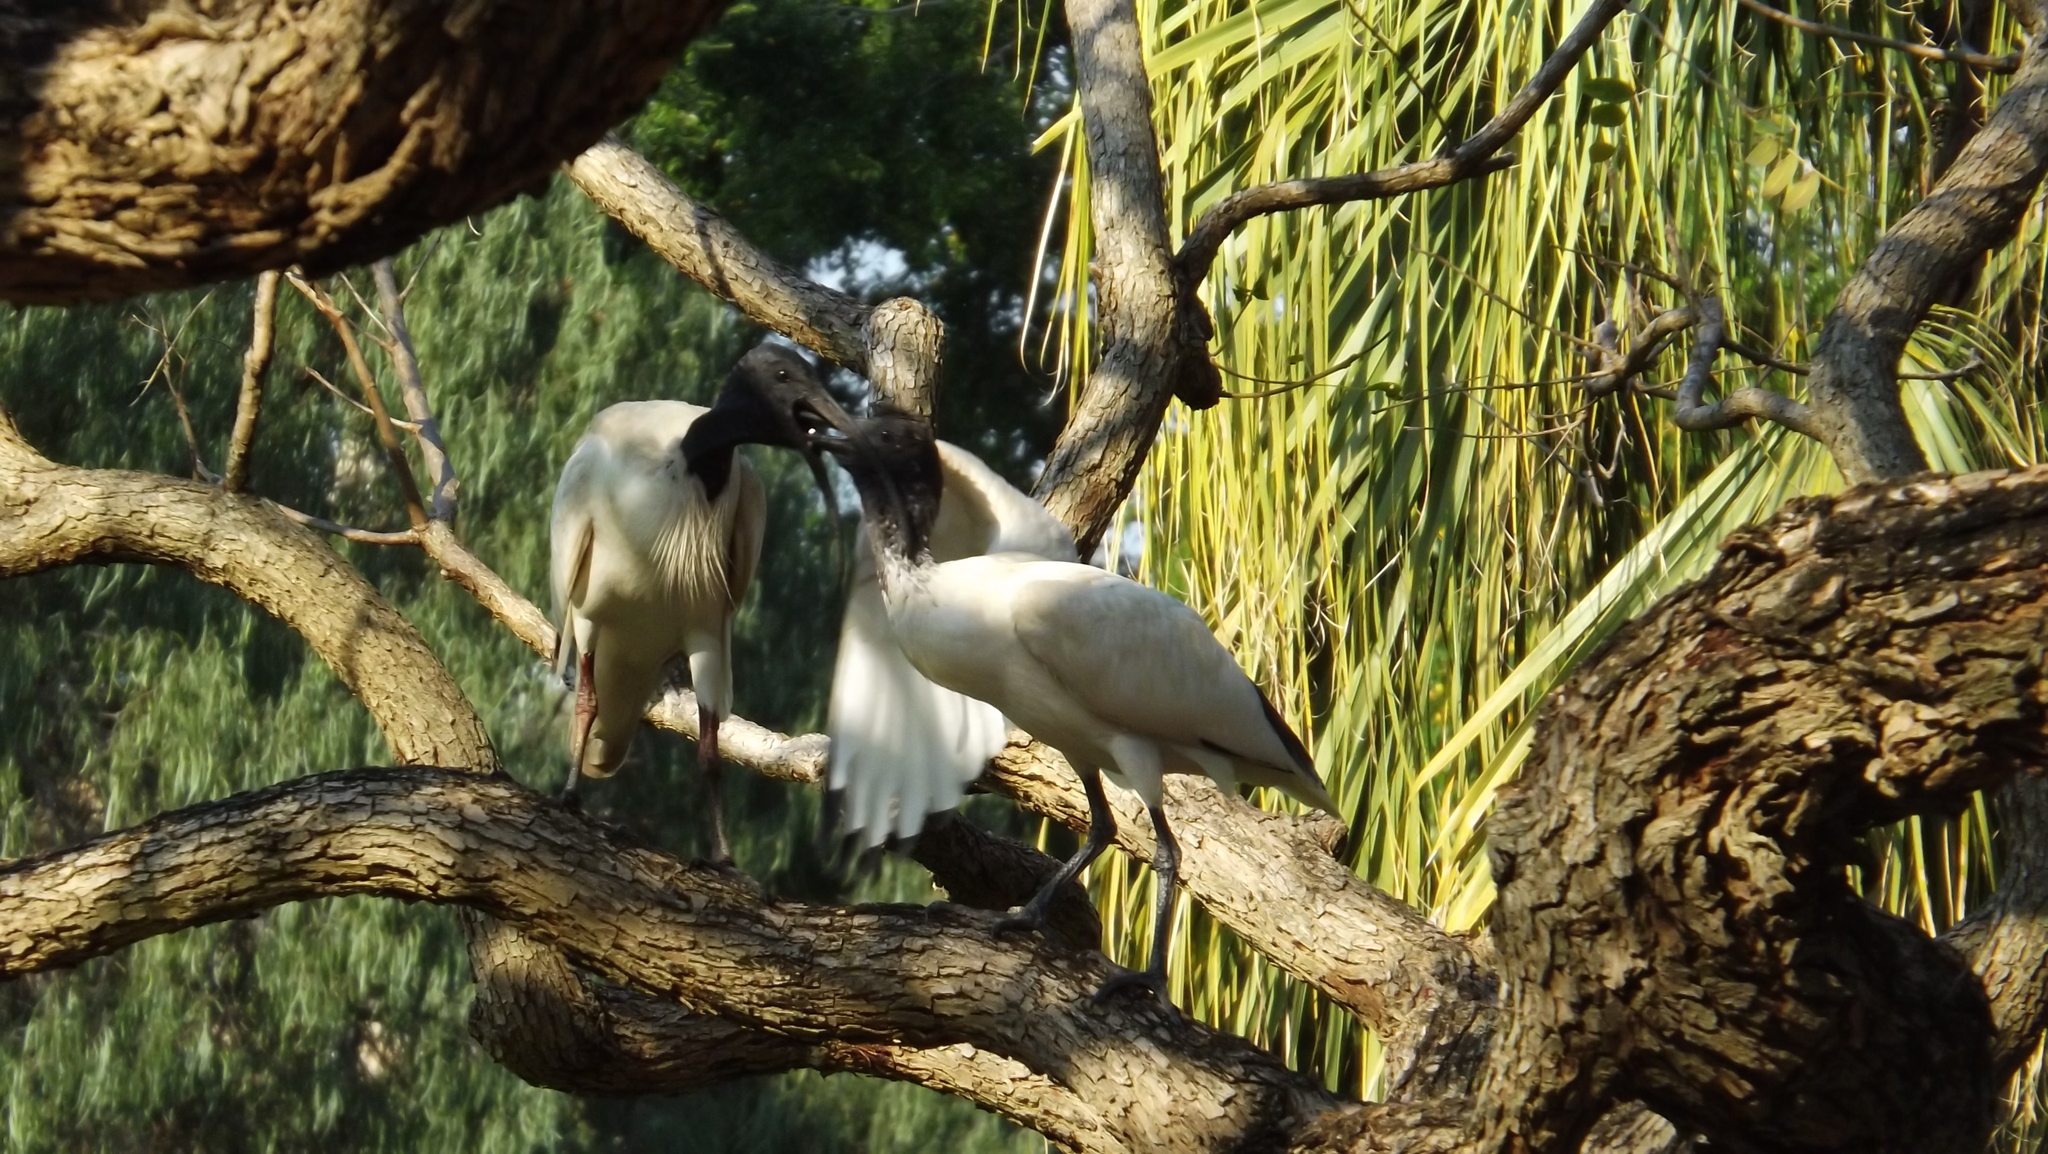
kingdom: Animalia
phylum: Chordata
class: Aves
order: Pelecaniformes
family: Threskiornithidae
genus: Threskiornis
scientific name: Threskiornis molucca
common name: Australian white ibis
